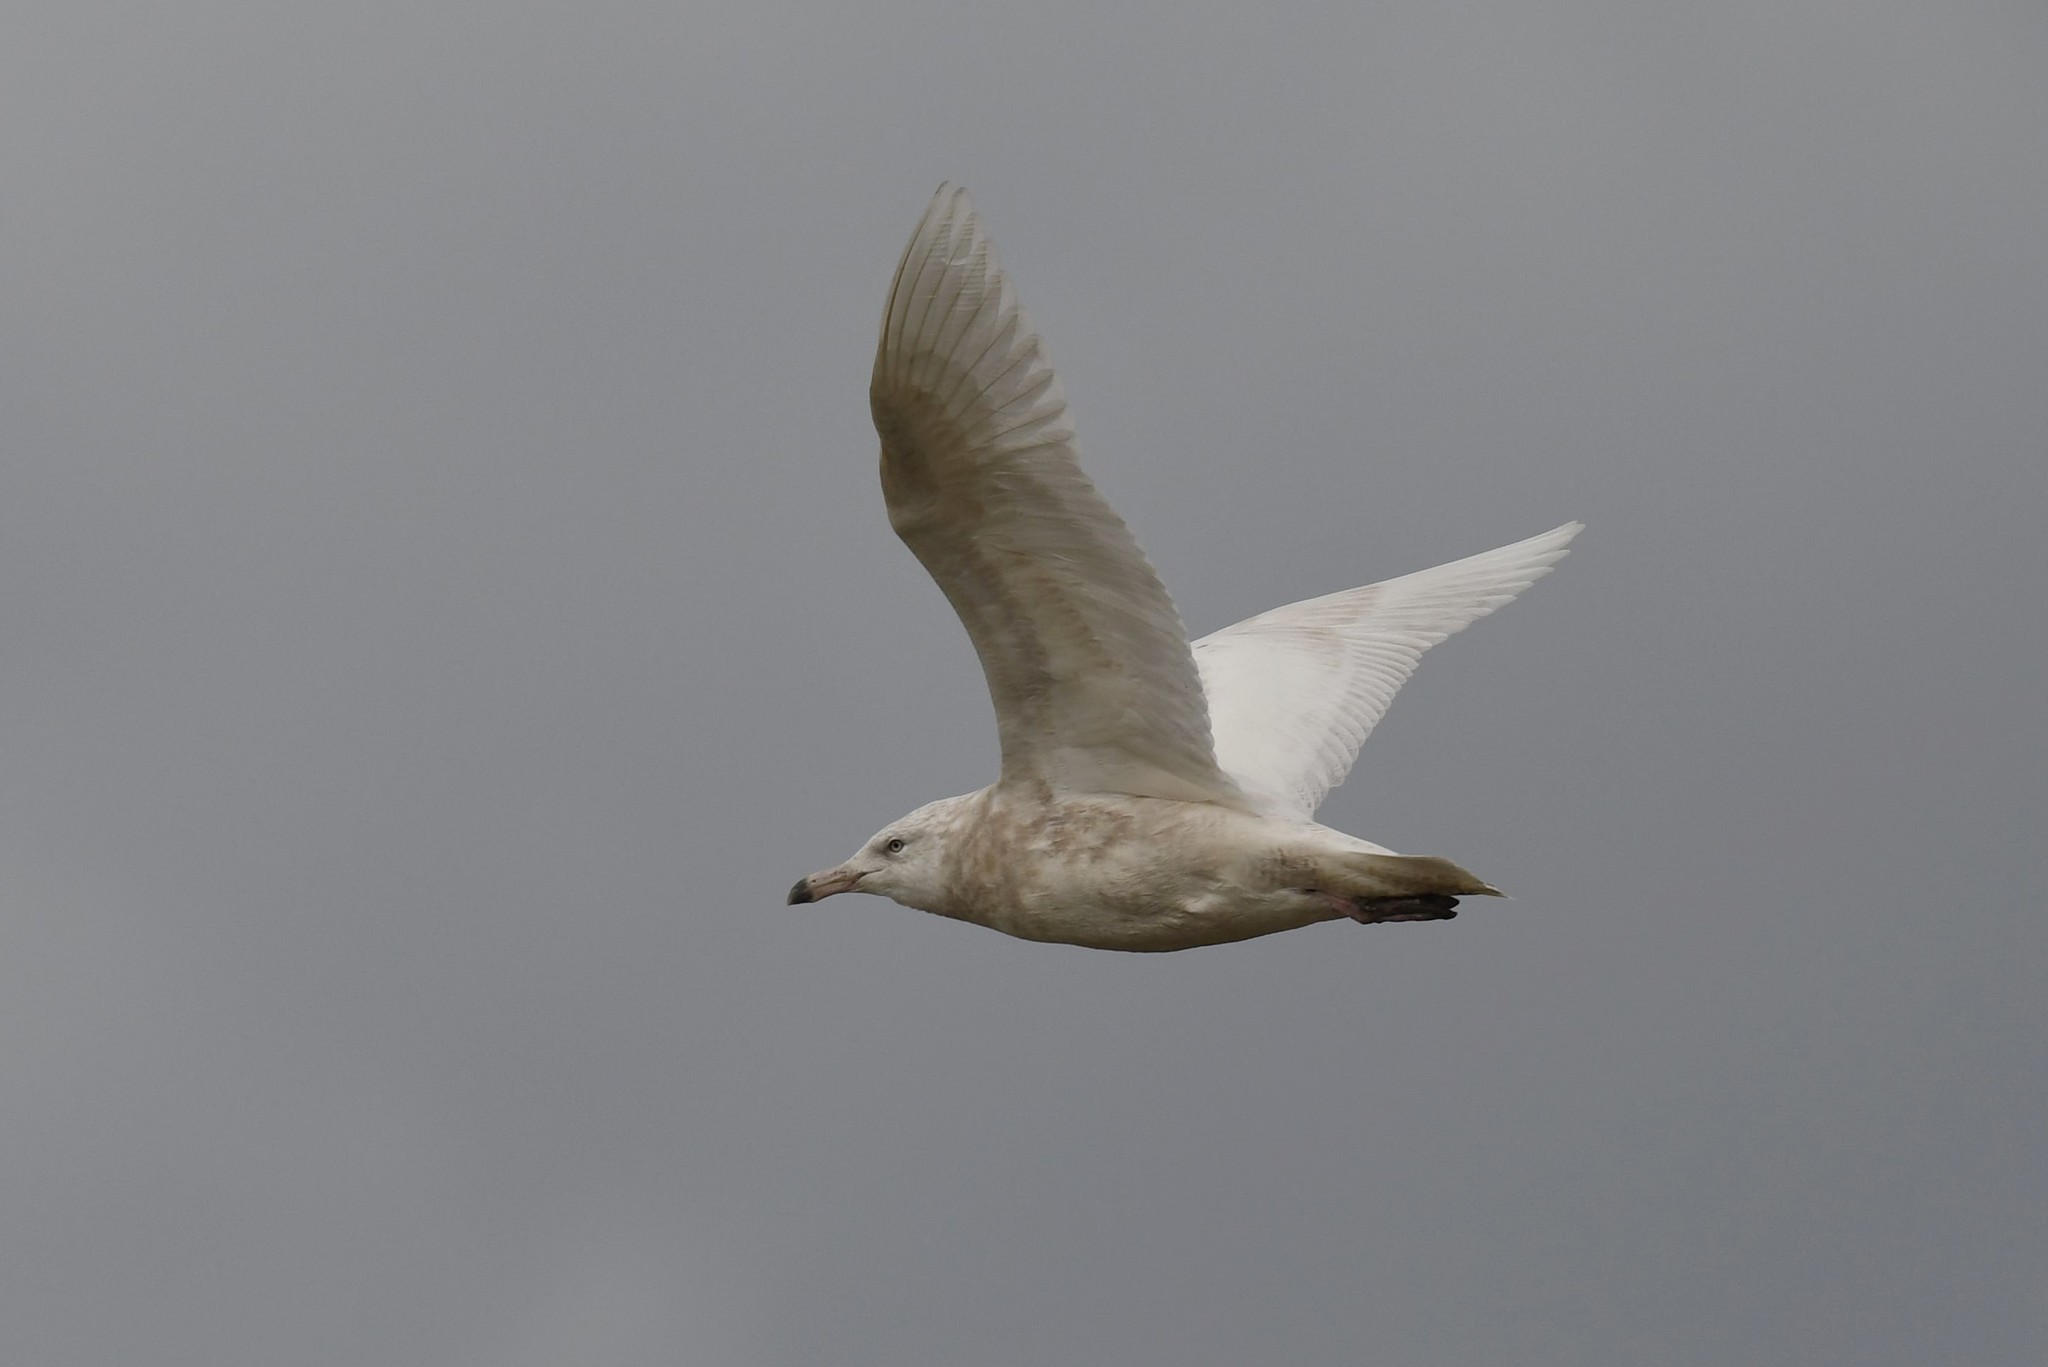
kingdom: Animalia
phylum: Chordata
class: Aves
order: Charadriiformes
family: Laridae
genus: Larus
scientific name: Larus hyperboreus
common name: Glaucous gull
